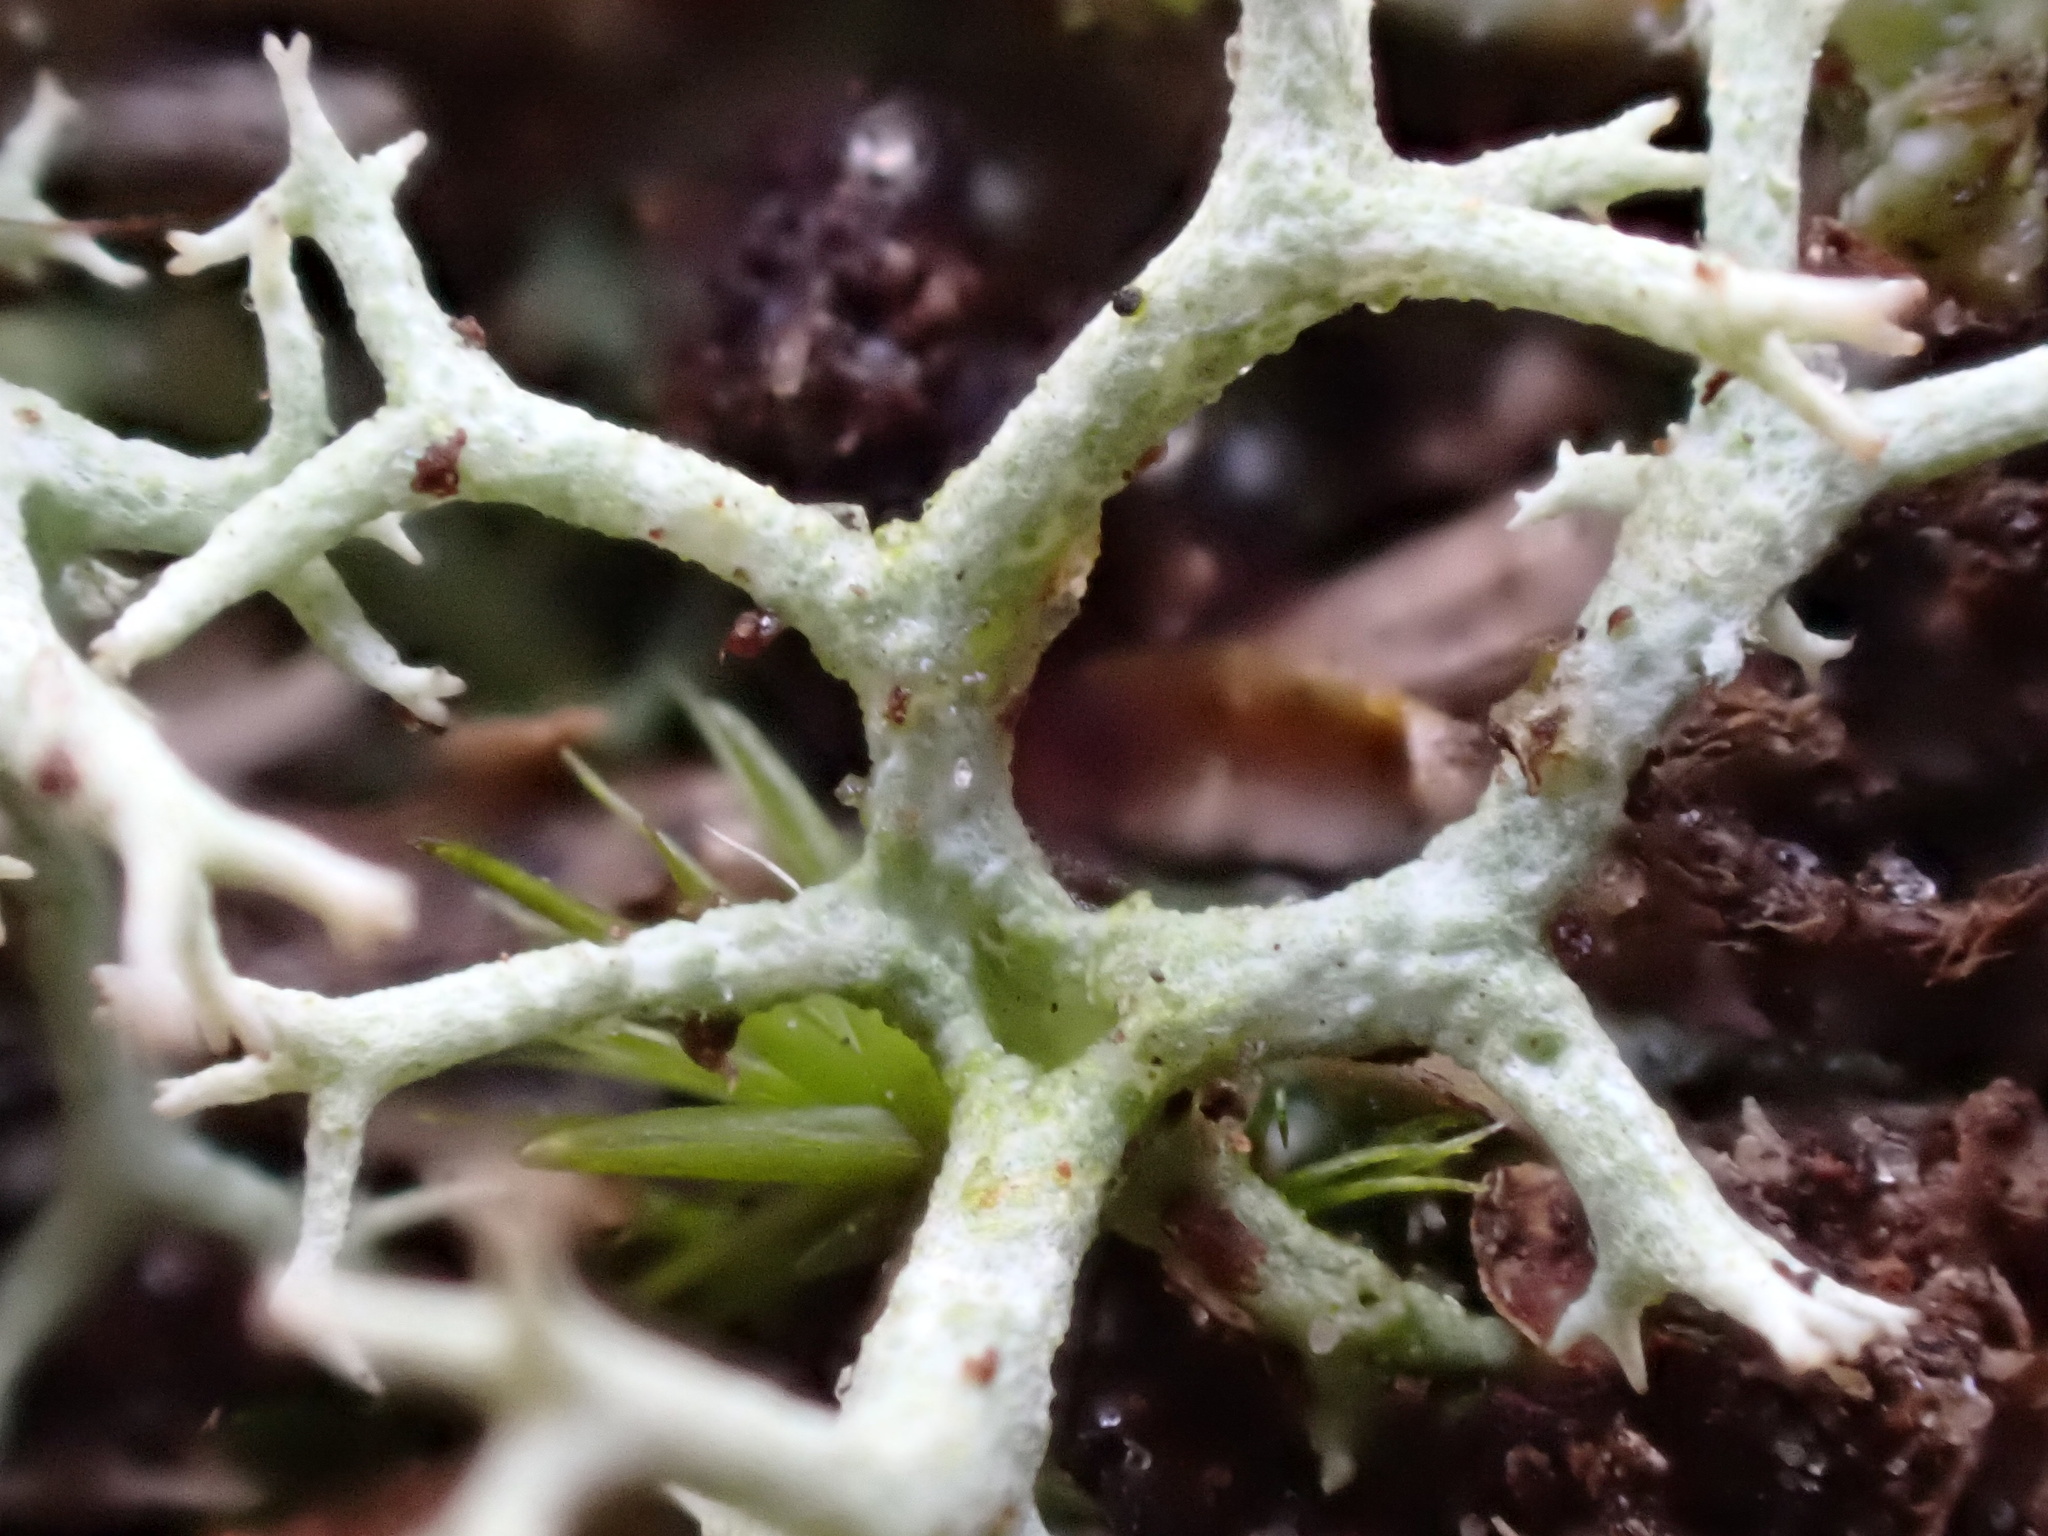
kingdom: Fungi
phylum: Ascomycota
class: Lecanoromycetes
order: Lecanorales
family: Cladoniaceae
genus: Cladonia
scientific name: Cladonia portentosa
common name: Reindeer lichen
